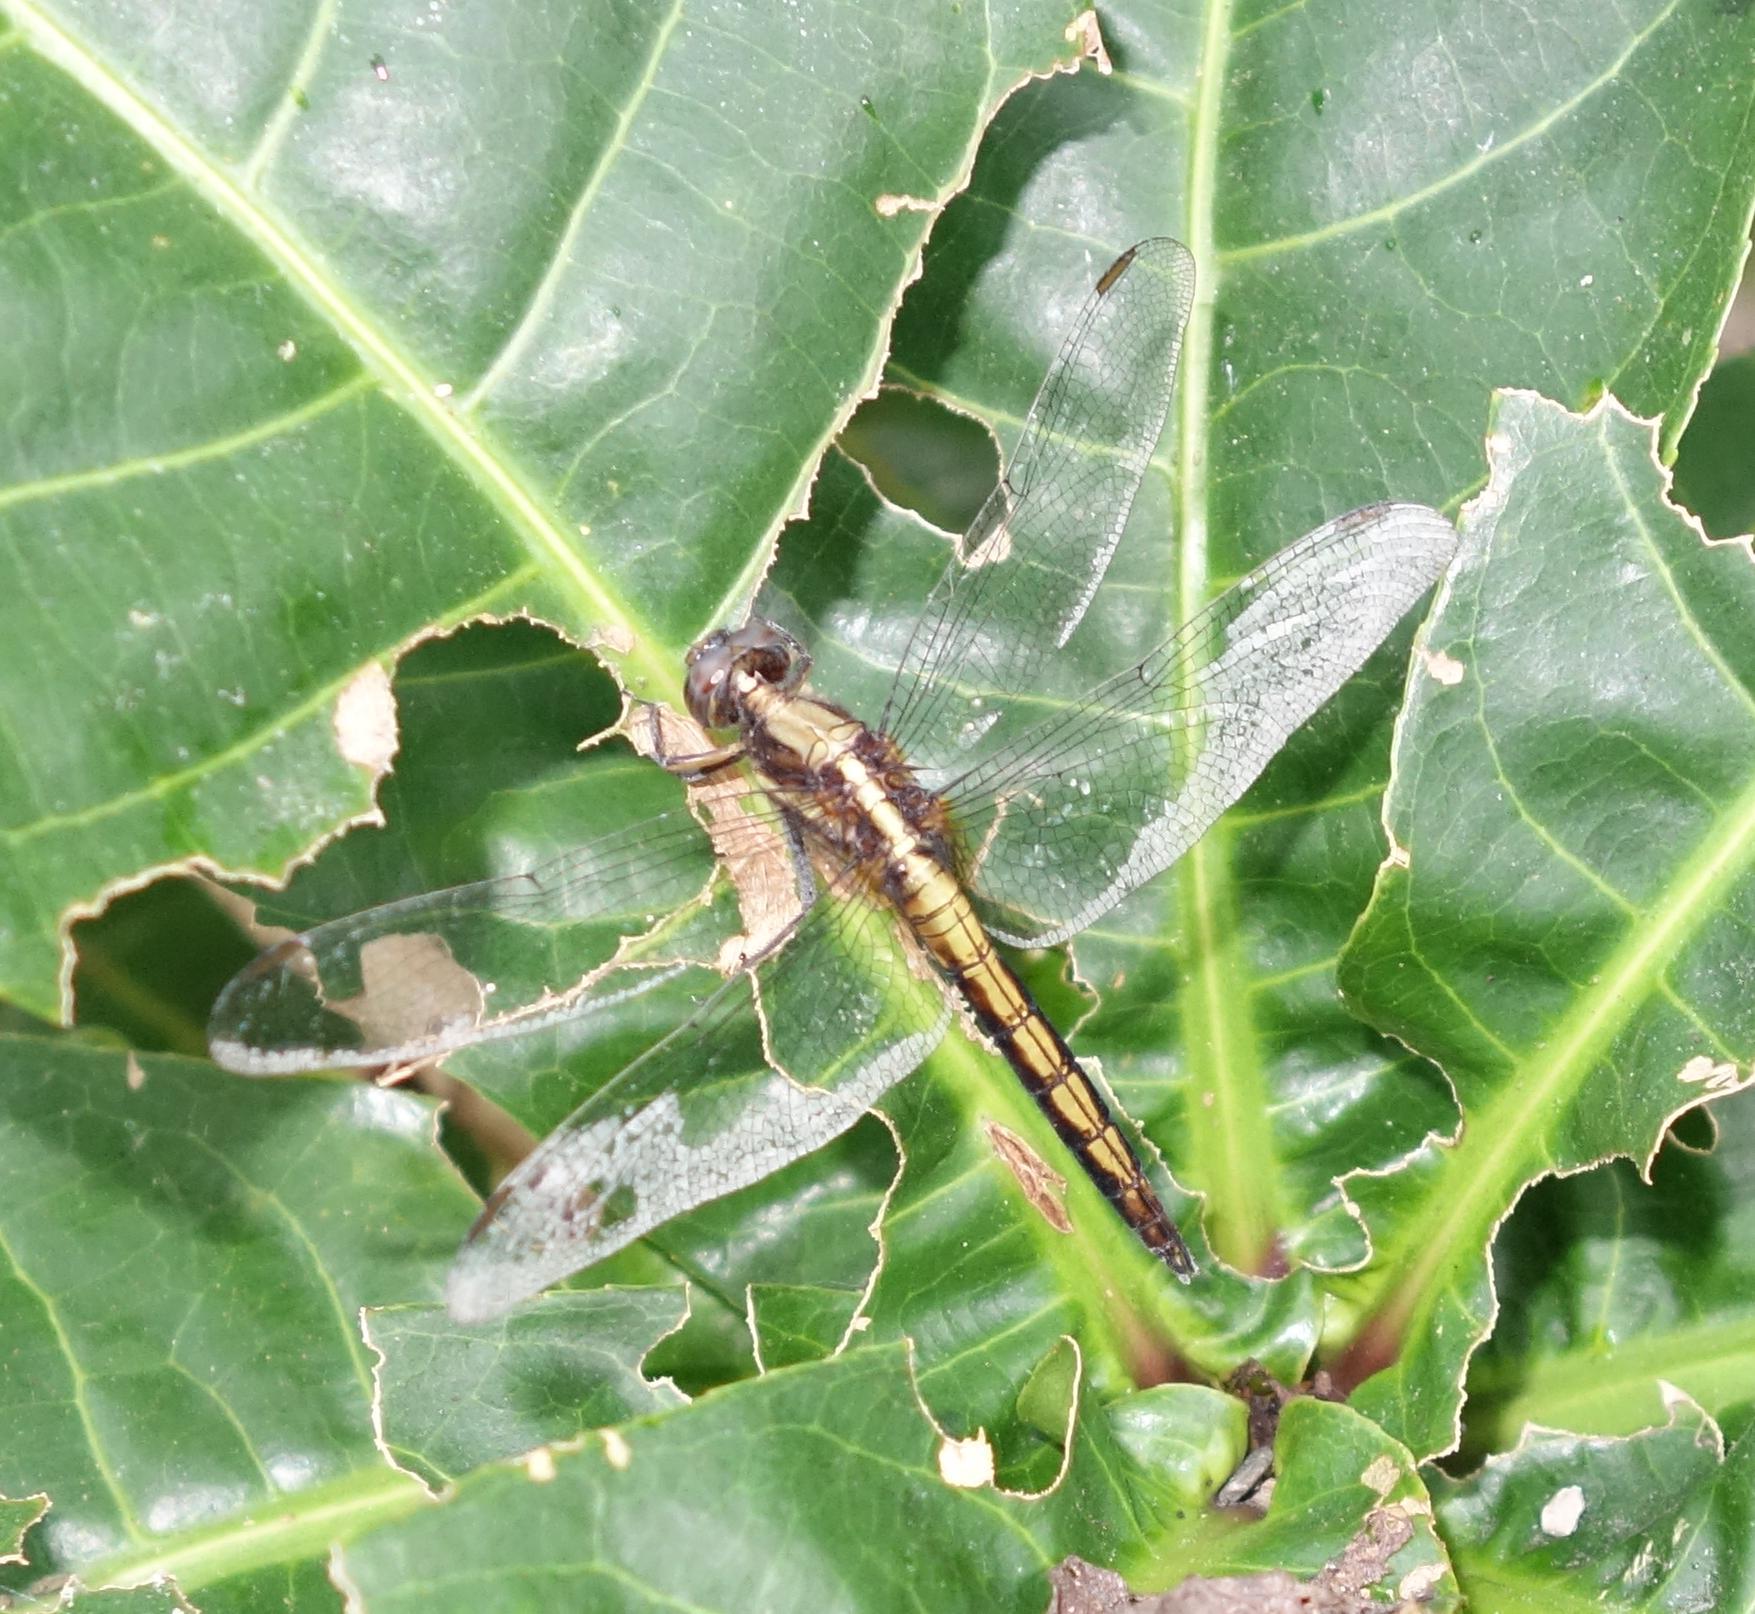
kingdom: Animalia
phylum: Arthropoda
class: Insecta
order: Odonata
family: Libellulidae
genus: Orthetrum
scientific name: Orthetrum glaucum
